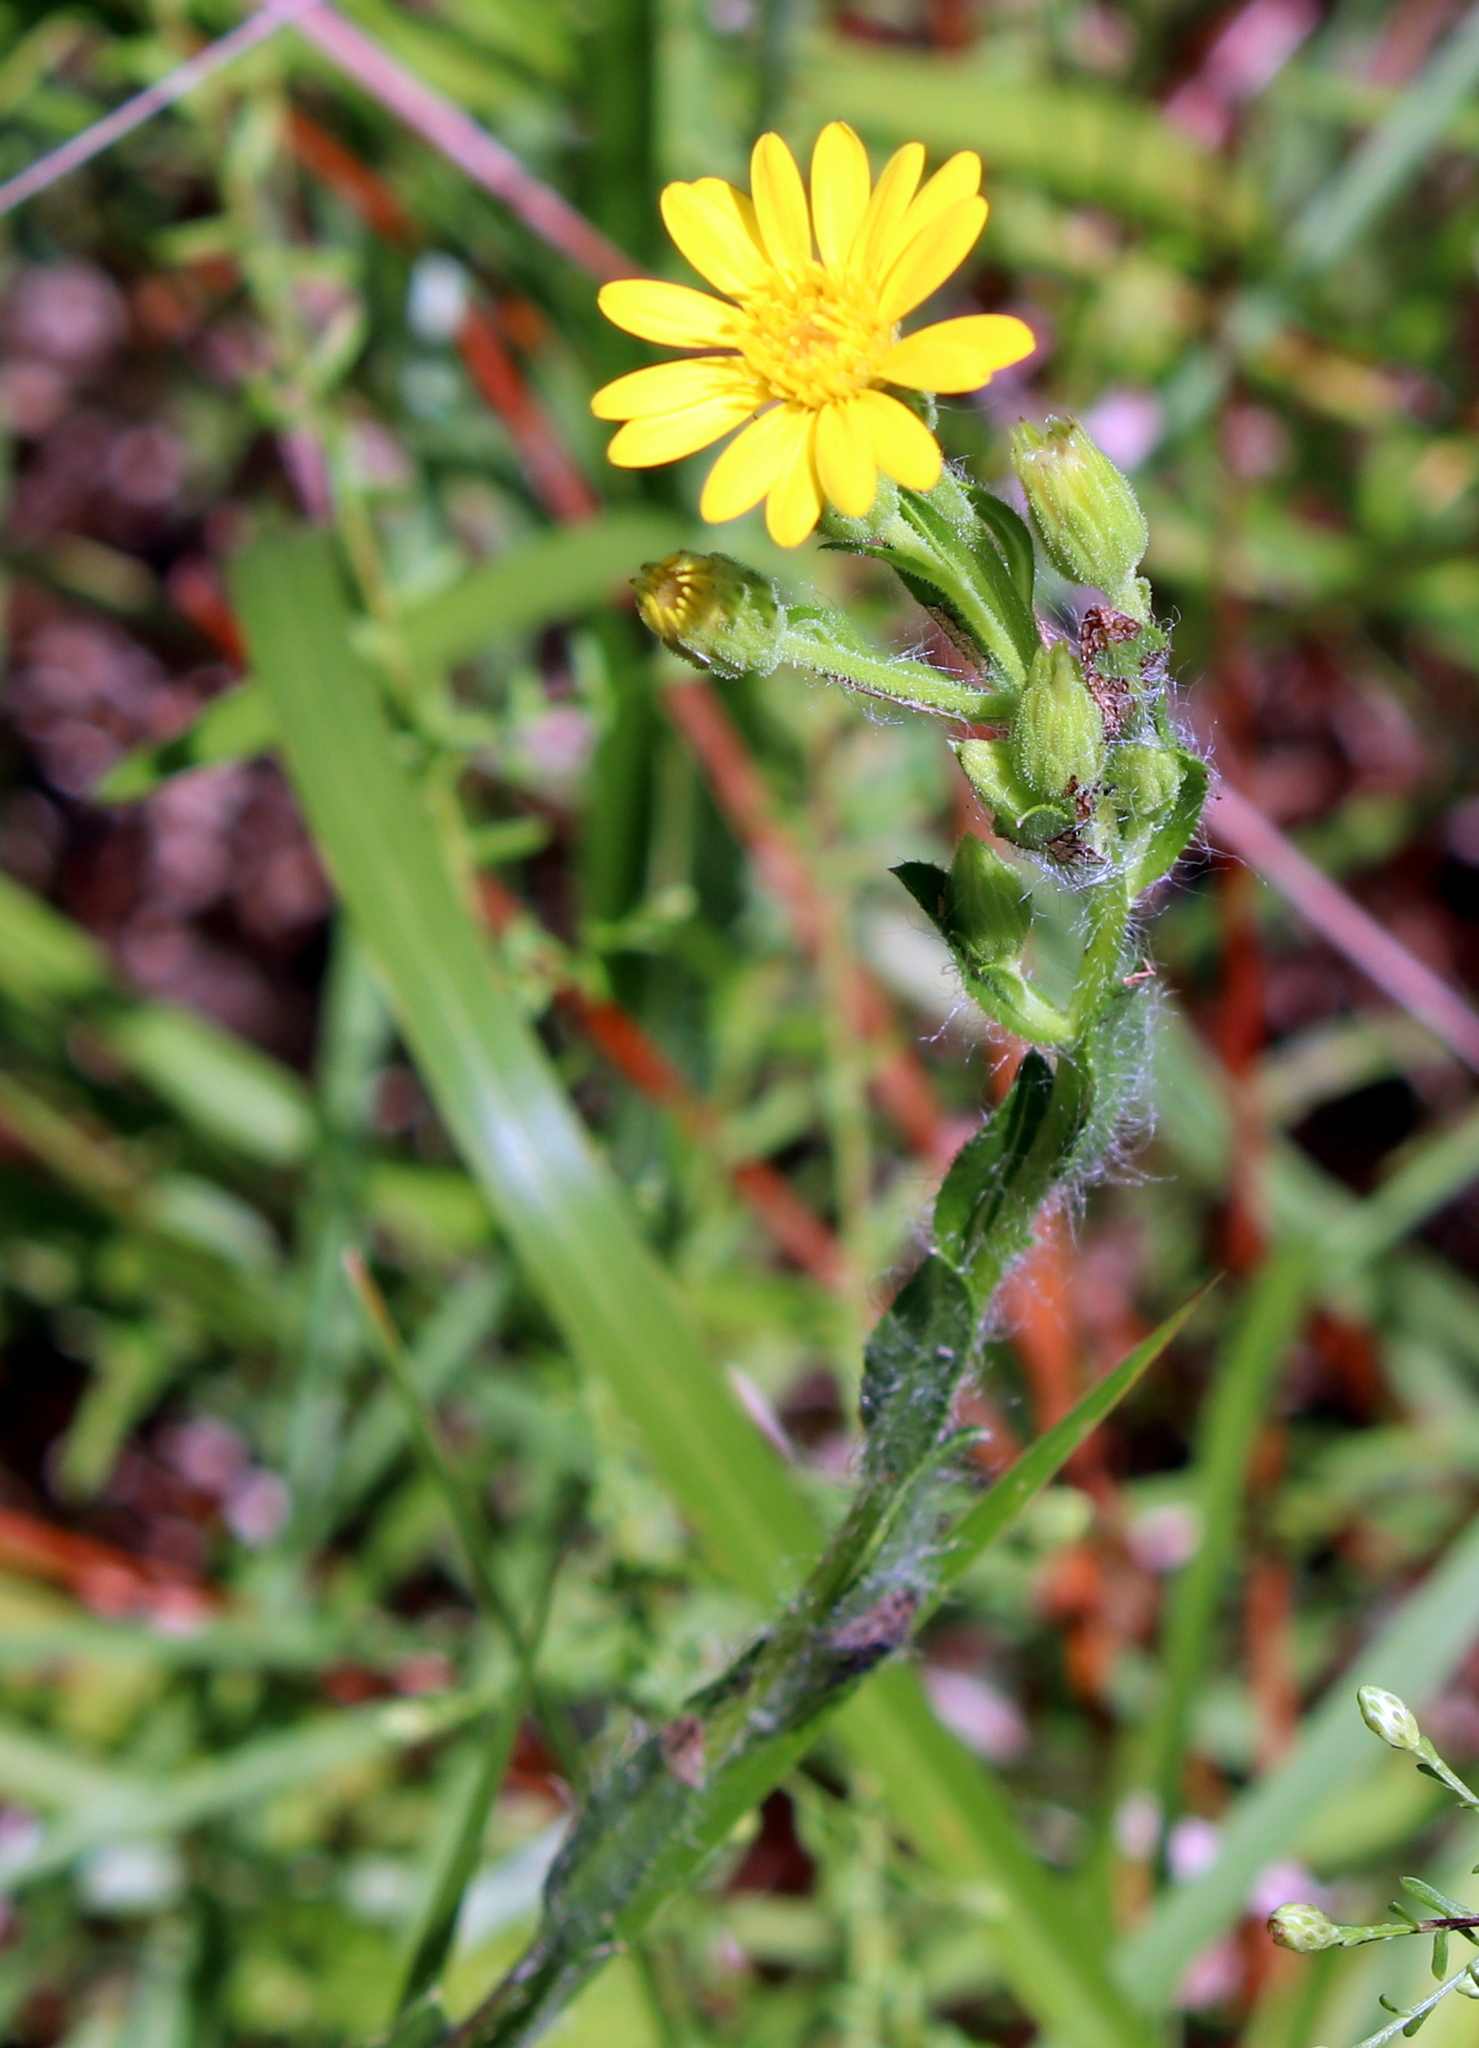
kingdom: Plantae
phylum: Tracheophyta
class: Magnoliopsida
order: Asterales
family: Asteraceae
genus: Chrysopsis
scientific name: Chrysopsis mariana
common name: Maryland golden-aster
